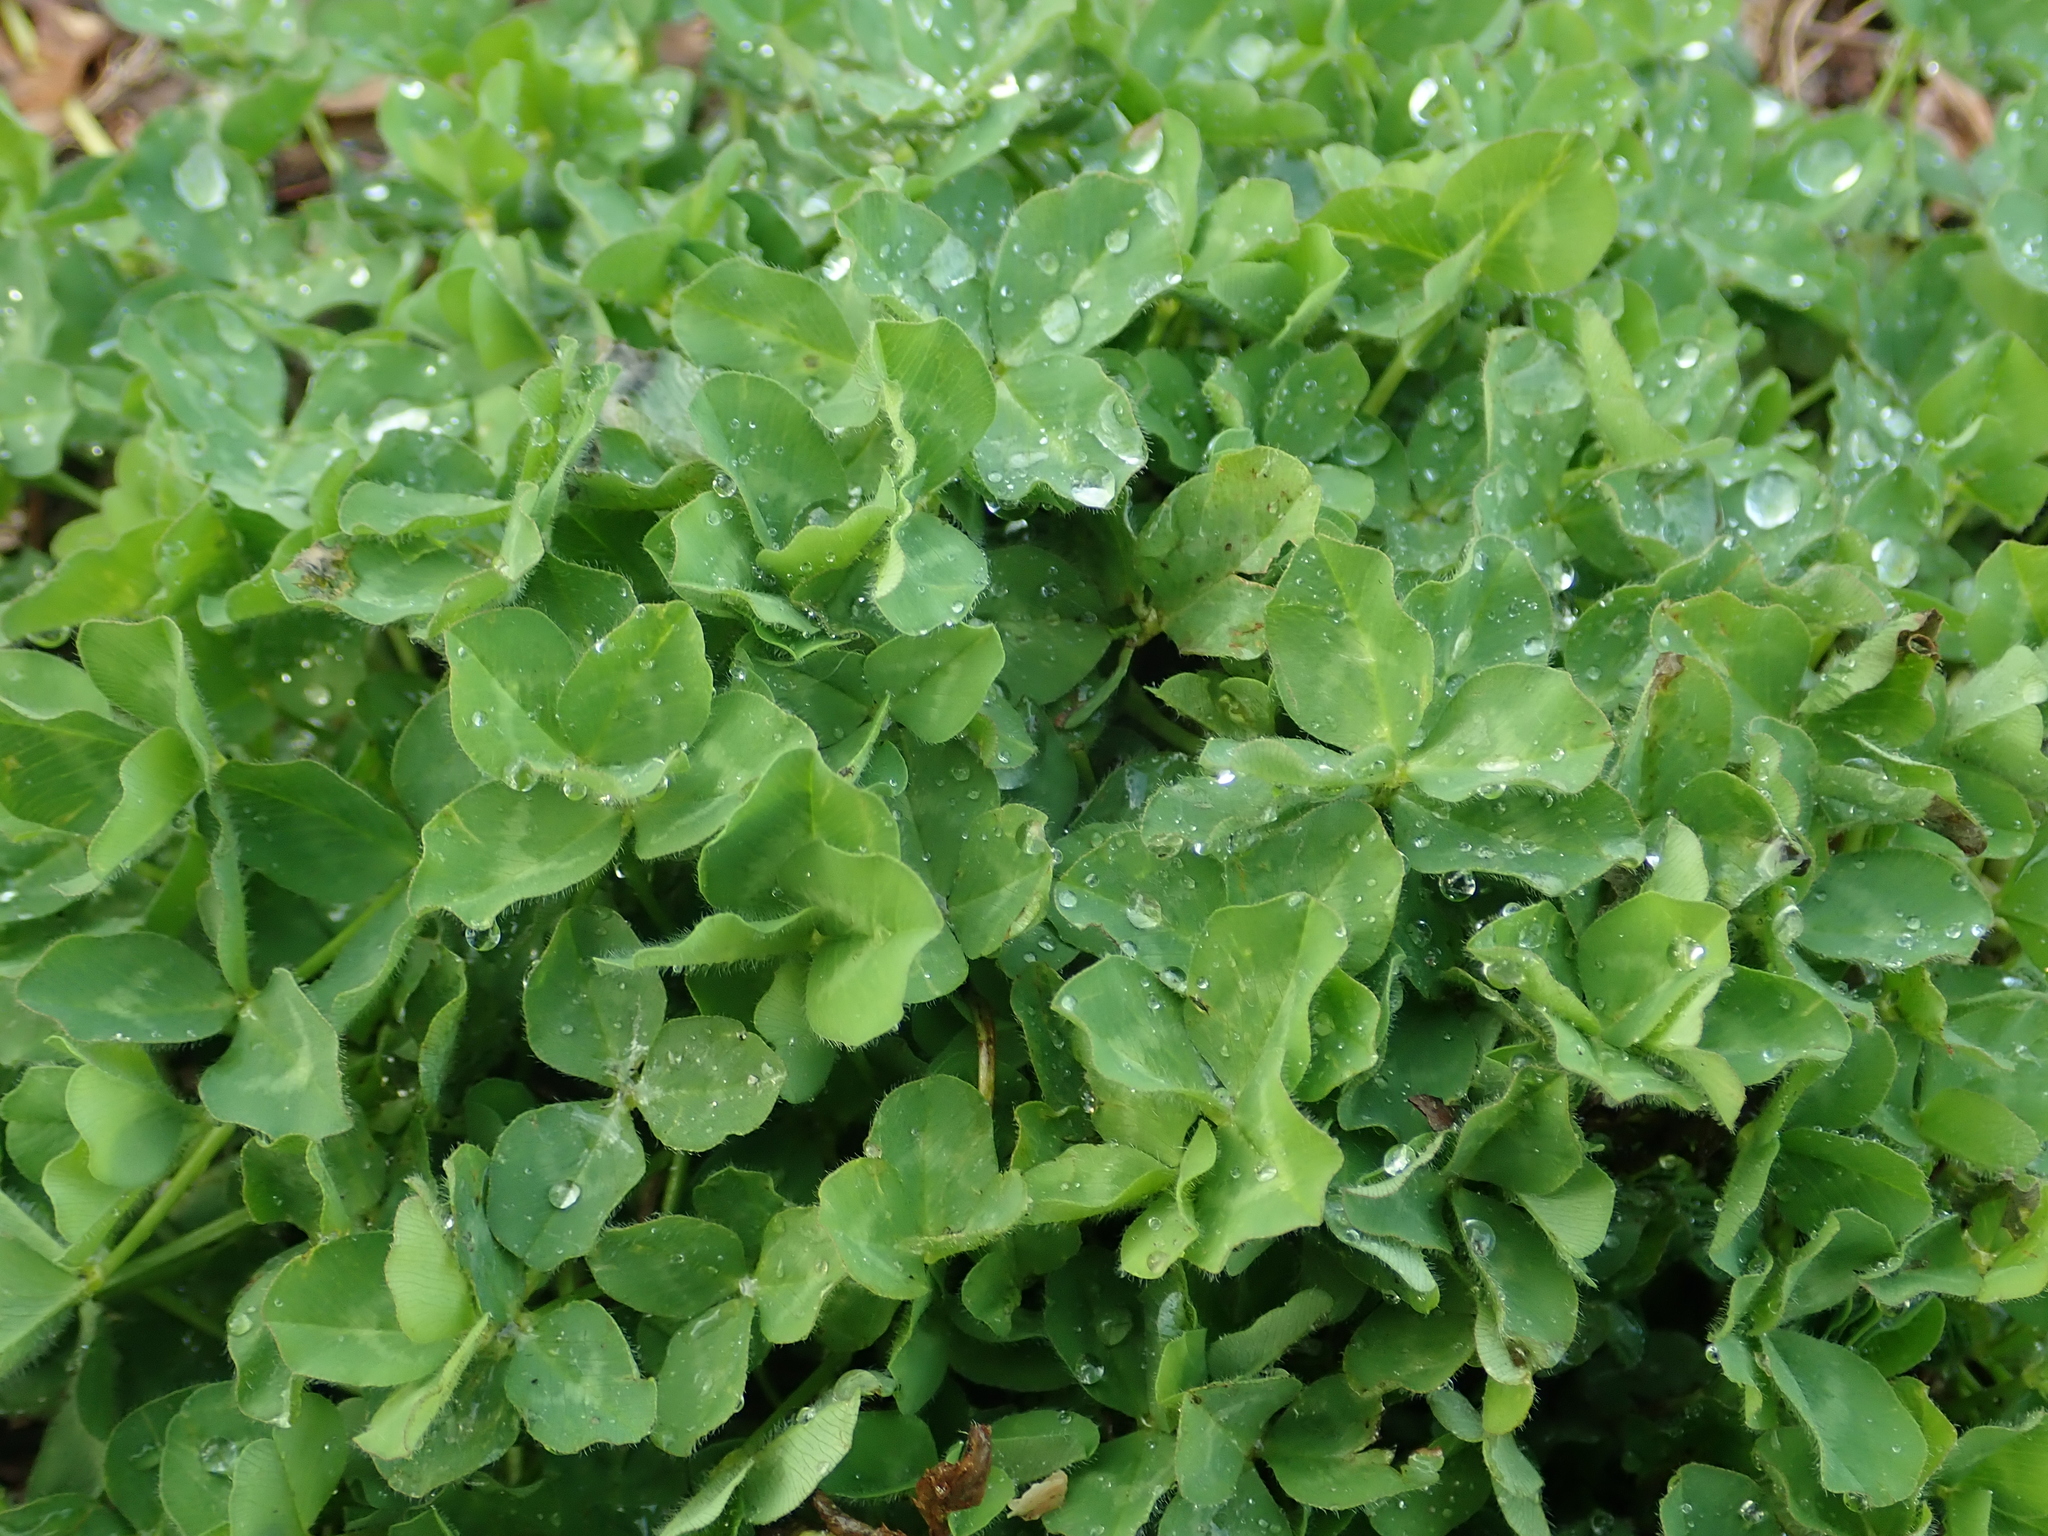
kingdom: Plantae
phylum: Tracheophyta
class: Magnoliopsida
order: Fabales
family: Fabaceae
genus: Trifolium
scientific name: Trifolium pratense
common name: Red clover
